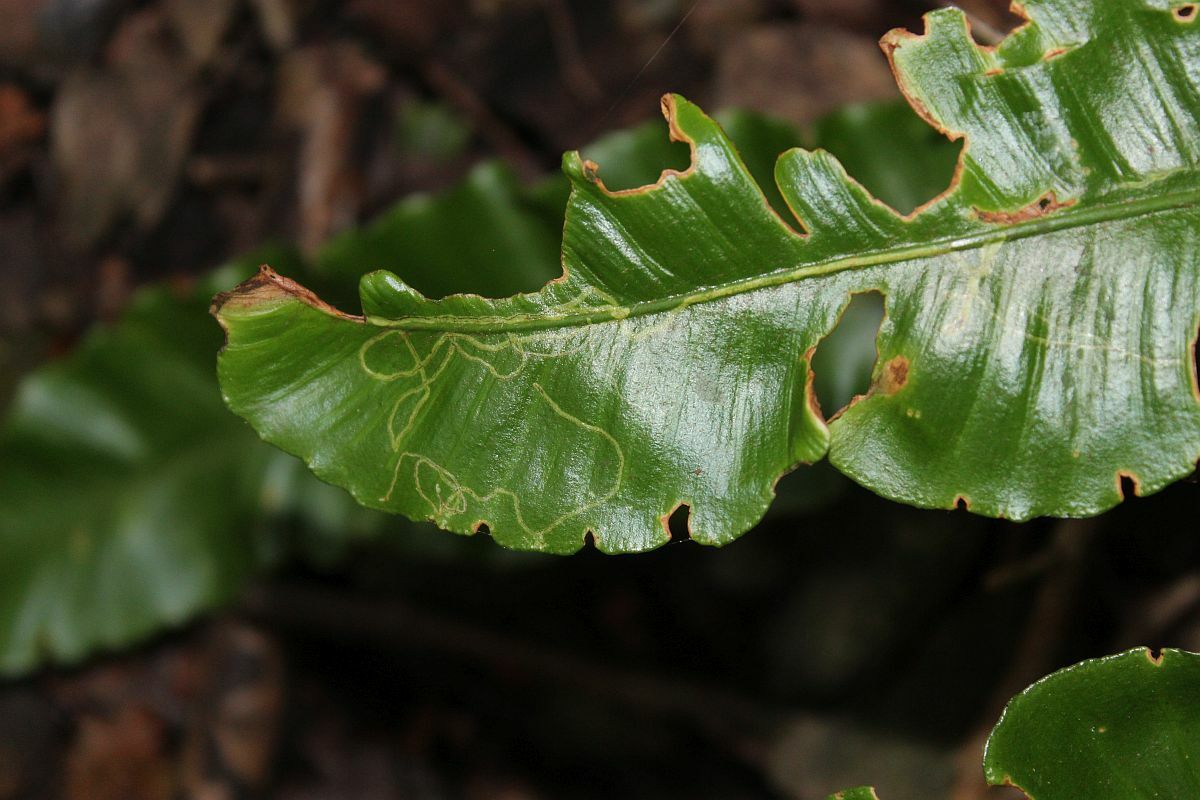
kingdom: Animalia
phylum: Arthropoda
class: Insecta
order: Diptera
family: Agromyzidae
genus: Phytomyza
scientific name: Phytomyza scolopendri
